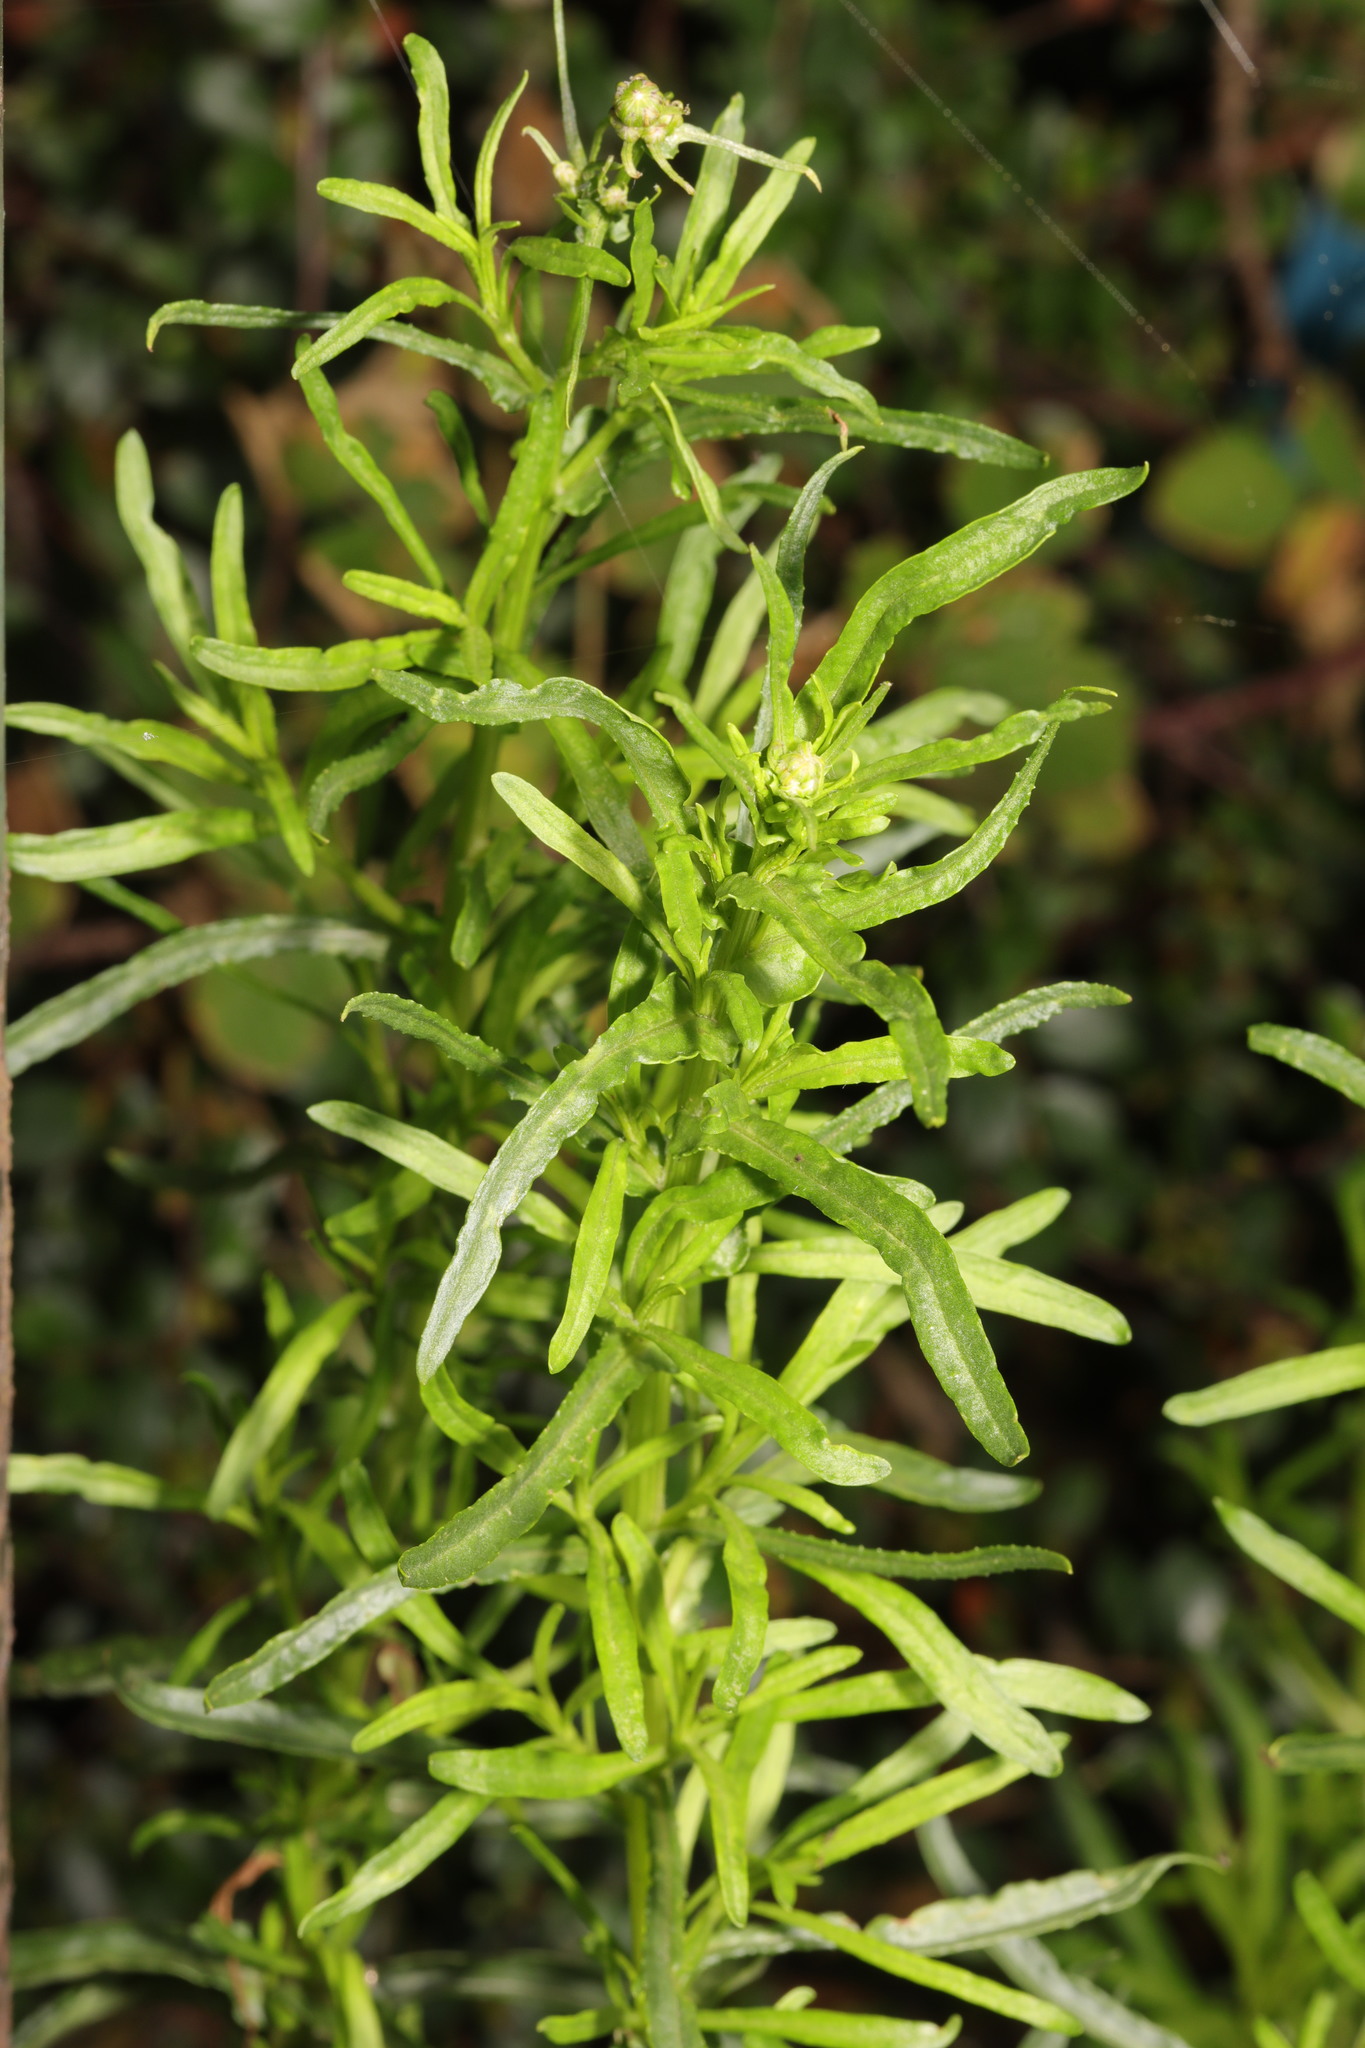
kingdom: Plantae
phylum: Tracheophyta
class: Magnoliopsida
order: Asterales
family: Asteraceae
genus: Senecio
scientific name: Senecio inaequidens
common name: Narrow-leaved ragwort
